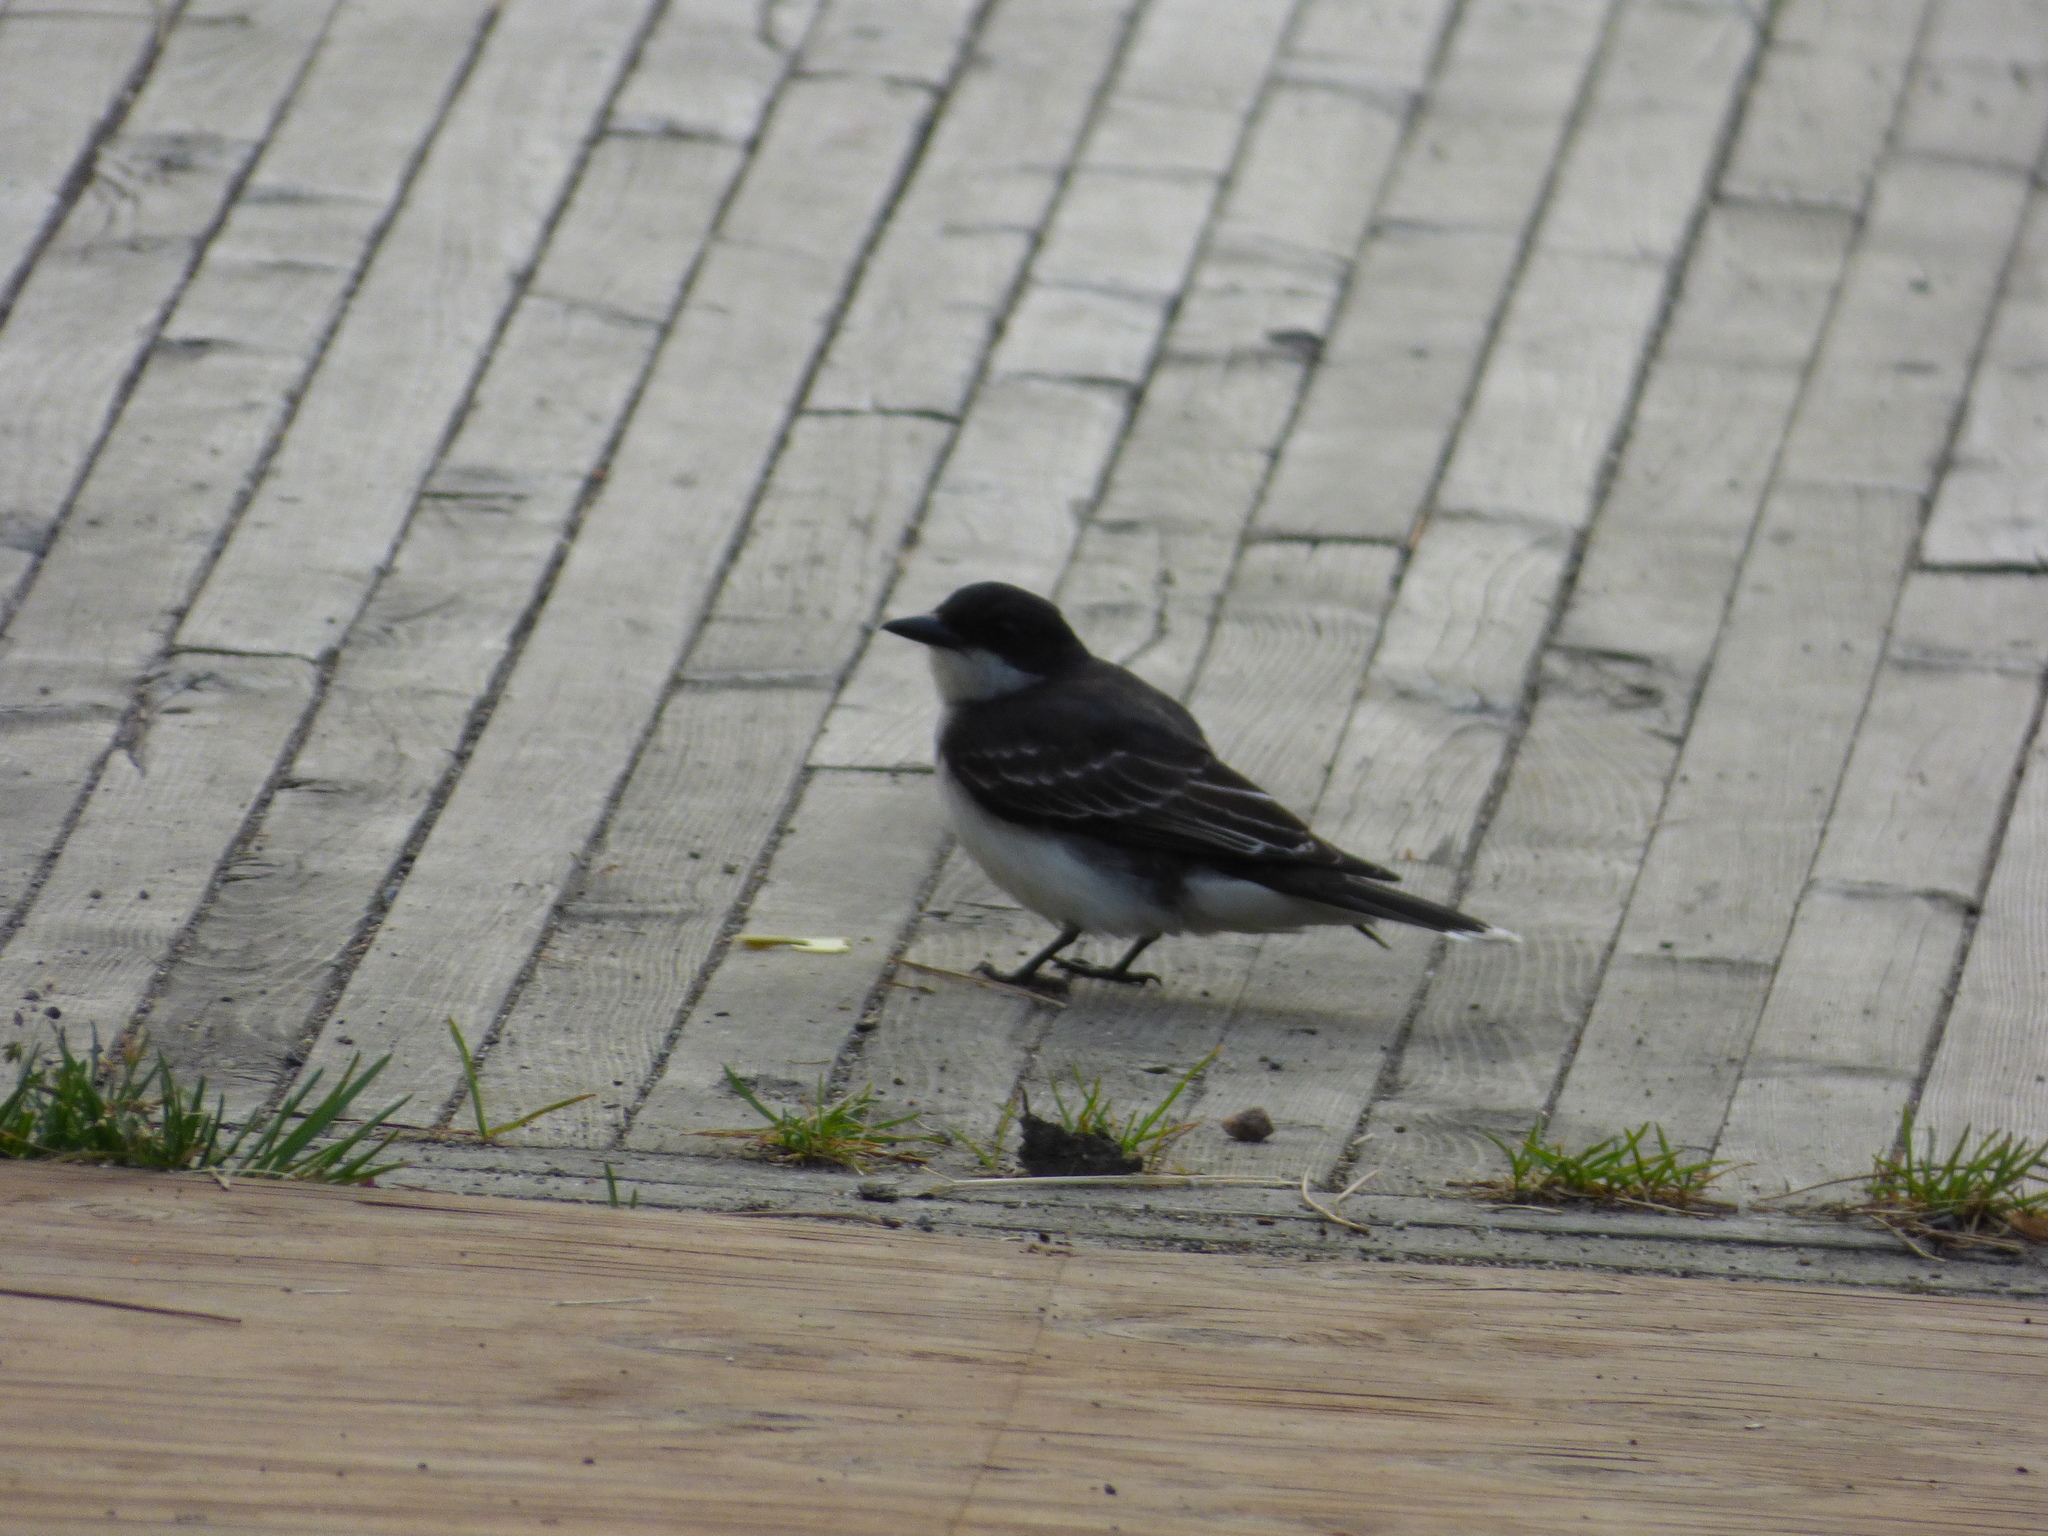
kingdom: Animalia
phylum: Chordata
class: Aves
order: Passeriformes
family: Tyrannidae
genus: Tyrannus
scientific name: Tyrannus tyrannus
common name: Eastern kingbird
